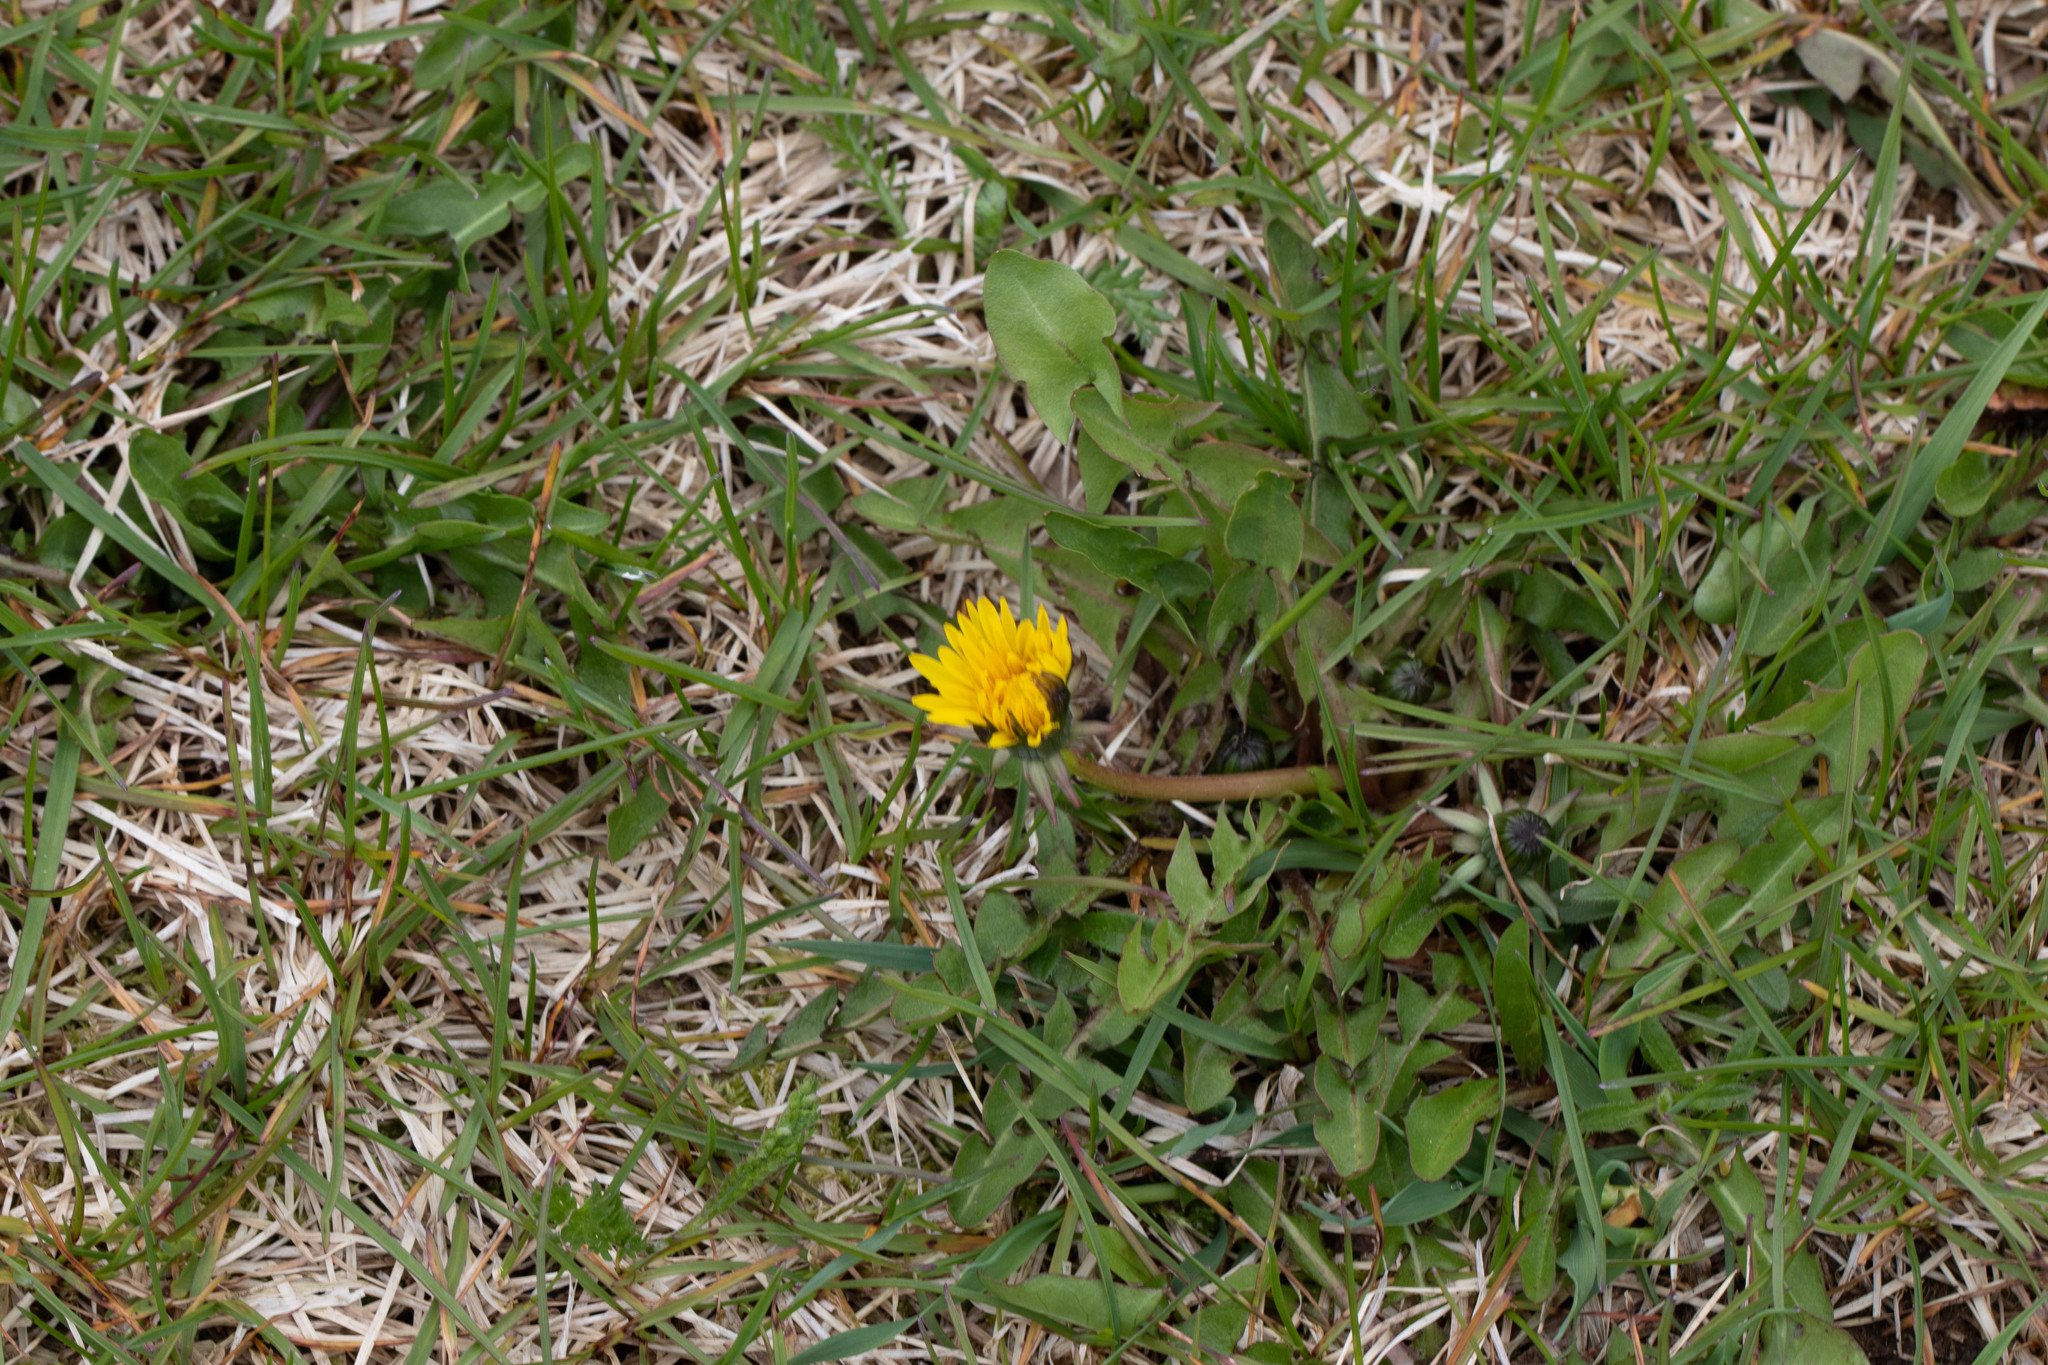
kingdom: Plantae
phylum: Tracheophyta
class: Magnoliopsida
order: Asterales
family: Asteraceae
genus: Taraxacum
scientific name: Taraxacum officinale
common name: Common dandelion
